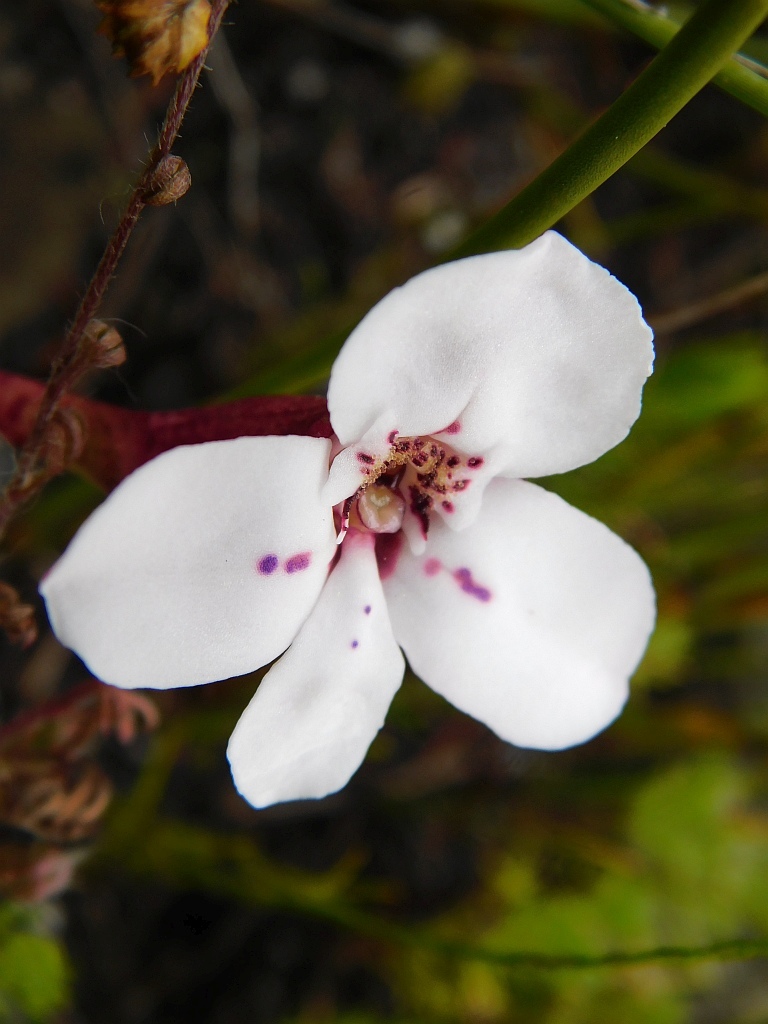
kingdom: Plantae
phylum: Tracheophyta
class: Liliopsida
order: Asparagales
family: Orchidaceae
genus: Disa
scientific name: Disa fasciata
